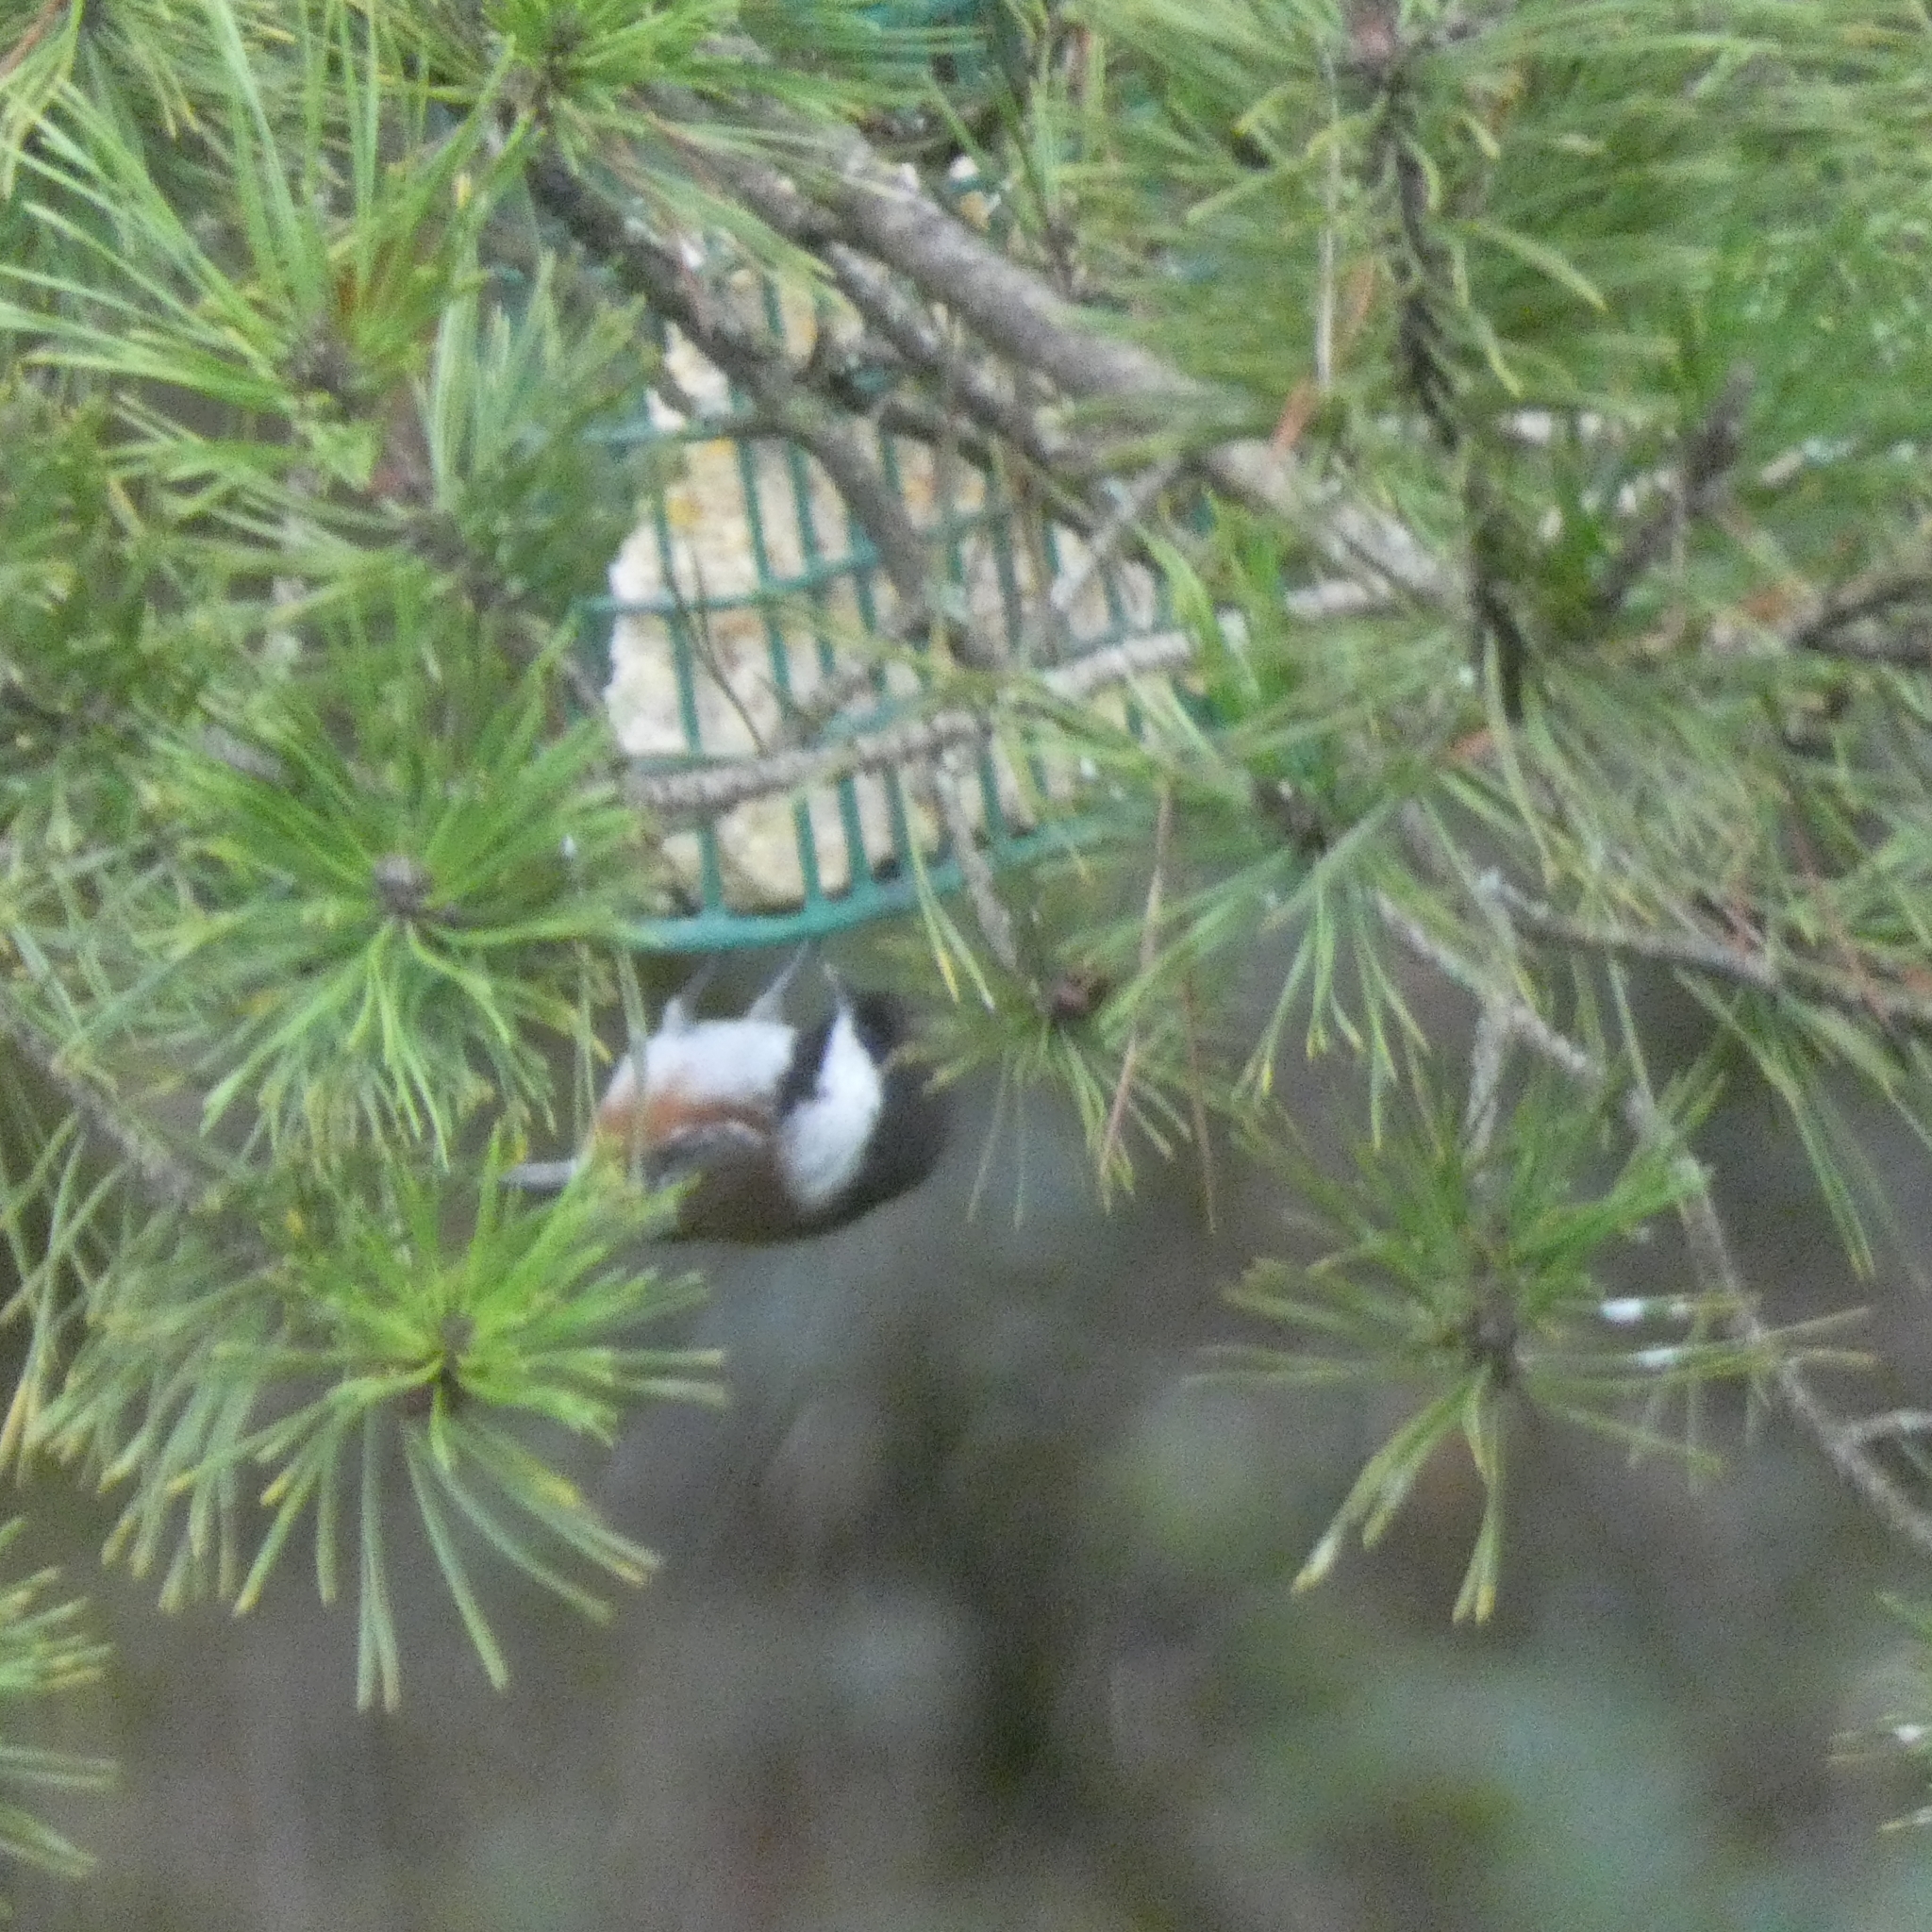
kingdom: Animalia
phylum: Chordata
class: Aves
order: Passeriformes
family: Paridae
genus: Poecile
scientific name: Poecile rufescens
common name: Chestnut-backed chickadee
